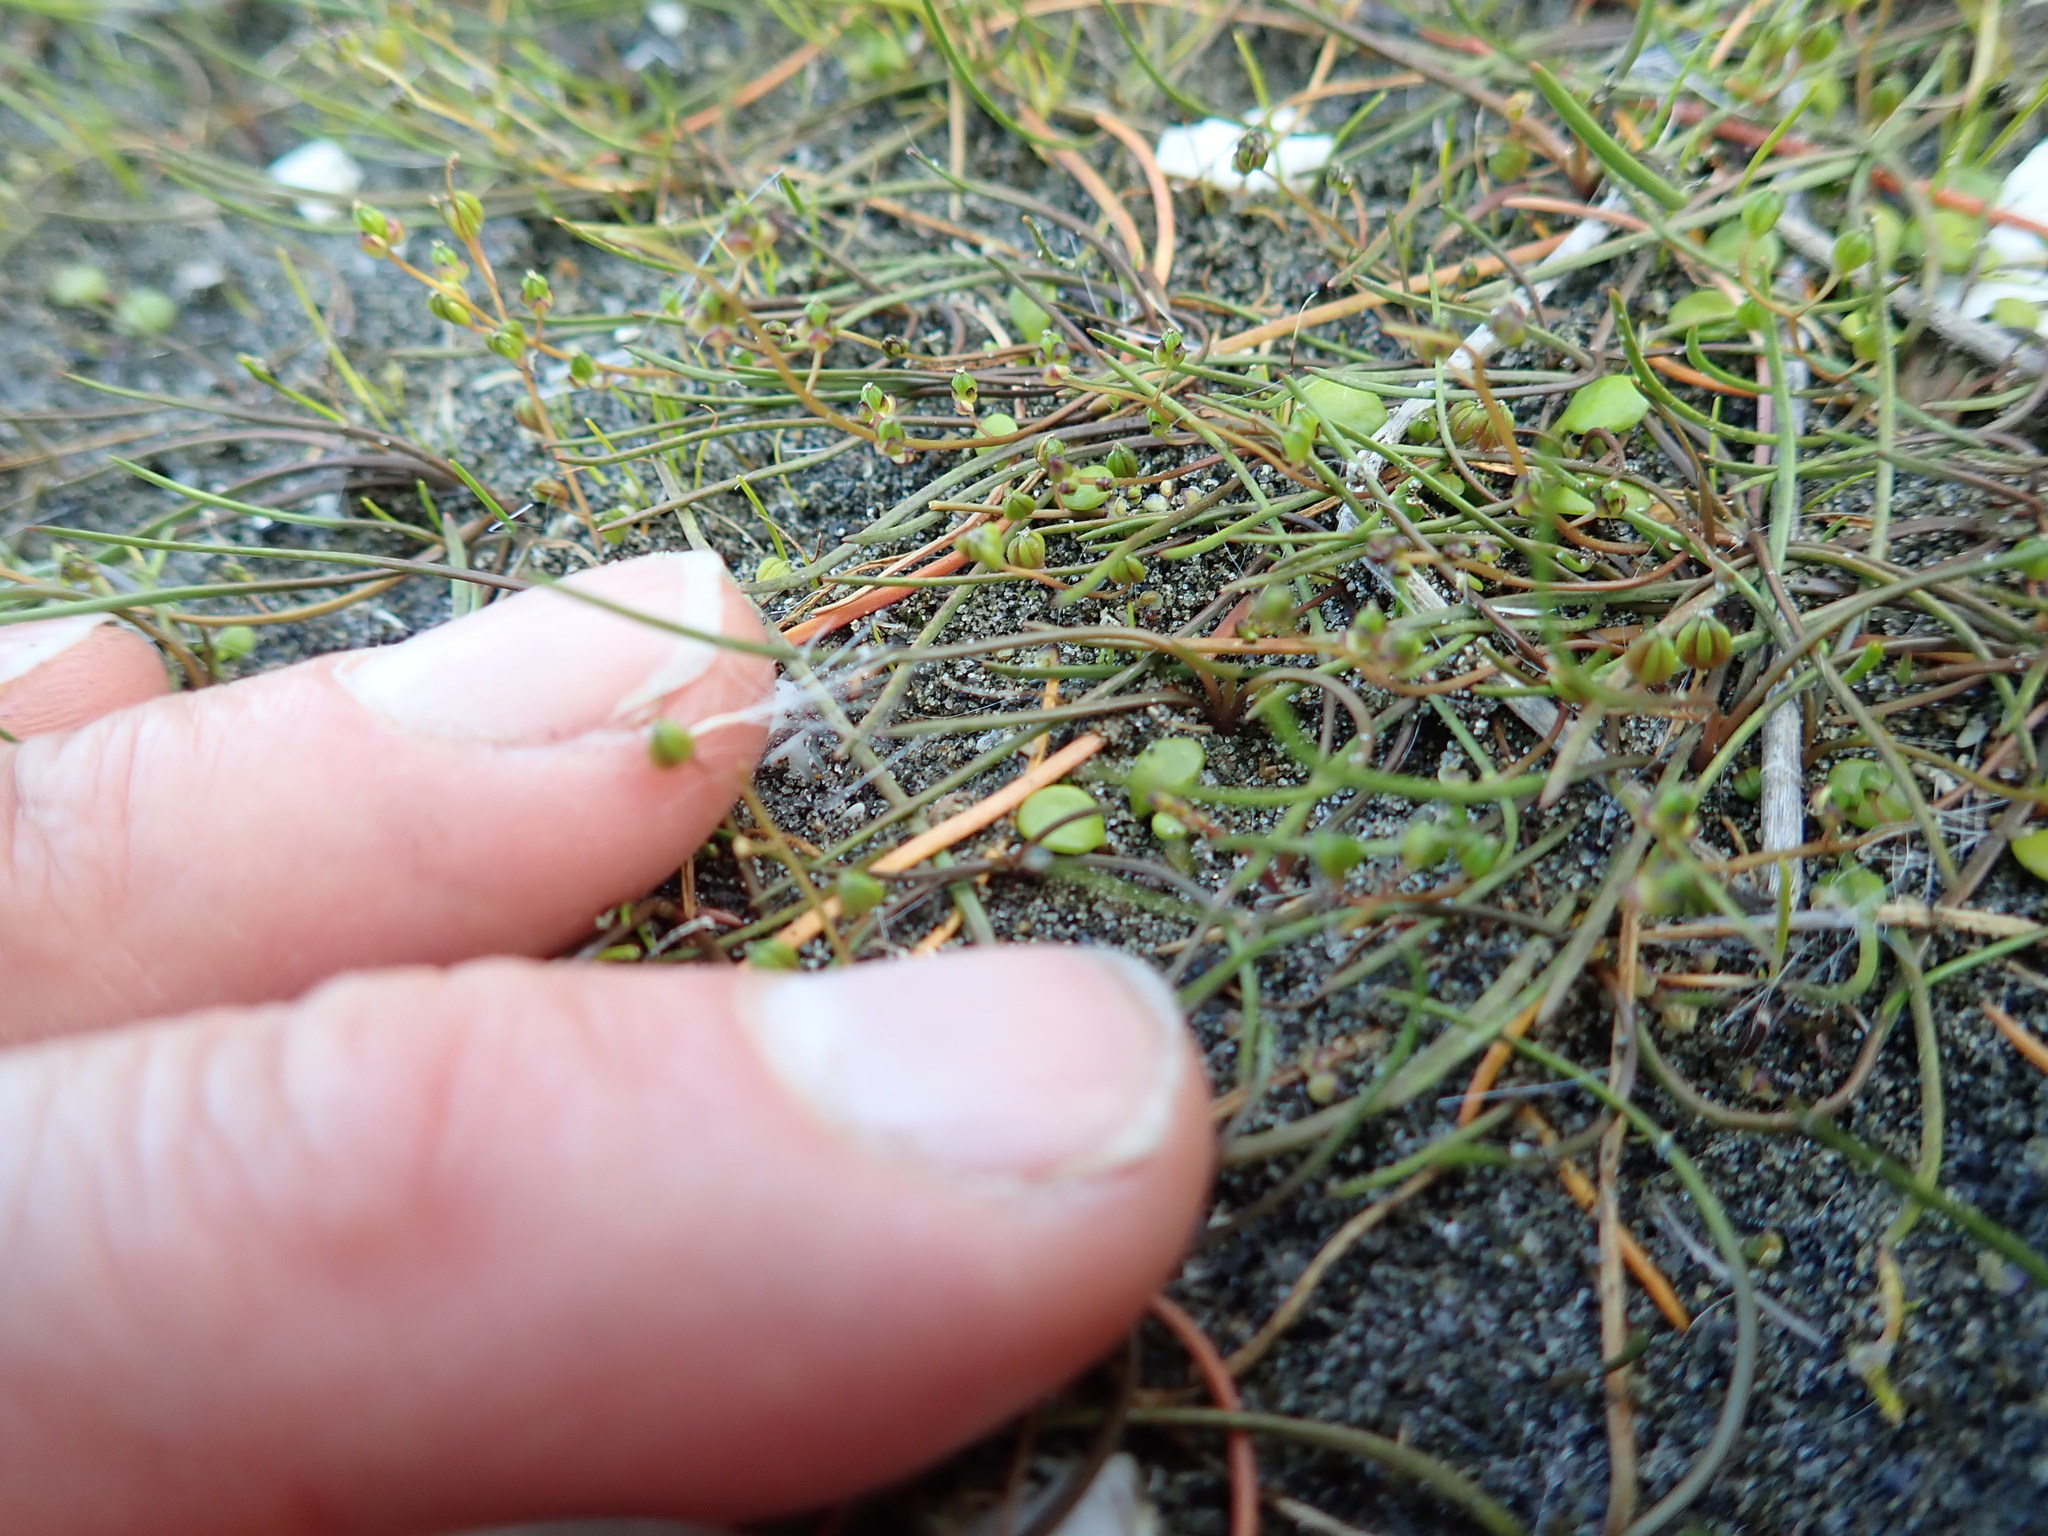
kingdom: Plantae
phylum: Tracheophyta
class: Liliopsida
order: Alismatales
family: Juncaginaceae
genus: Triglochin
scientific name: Triglochin striata
